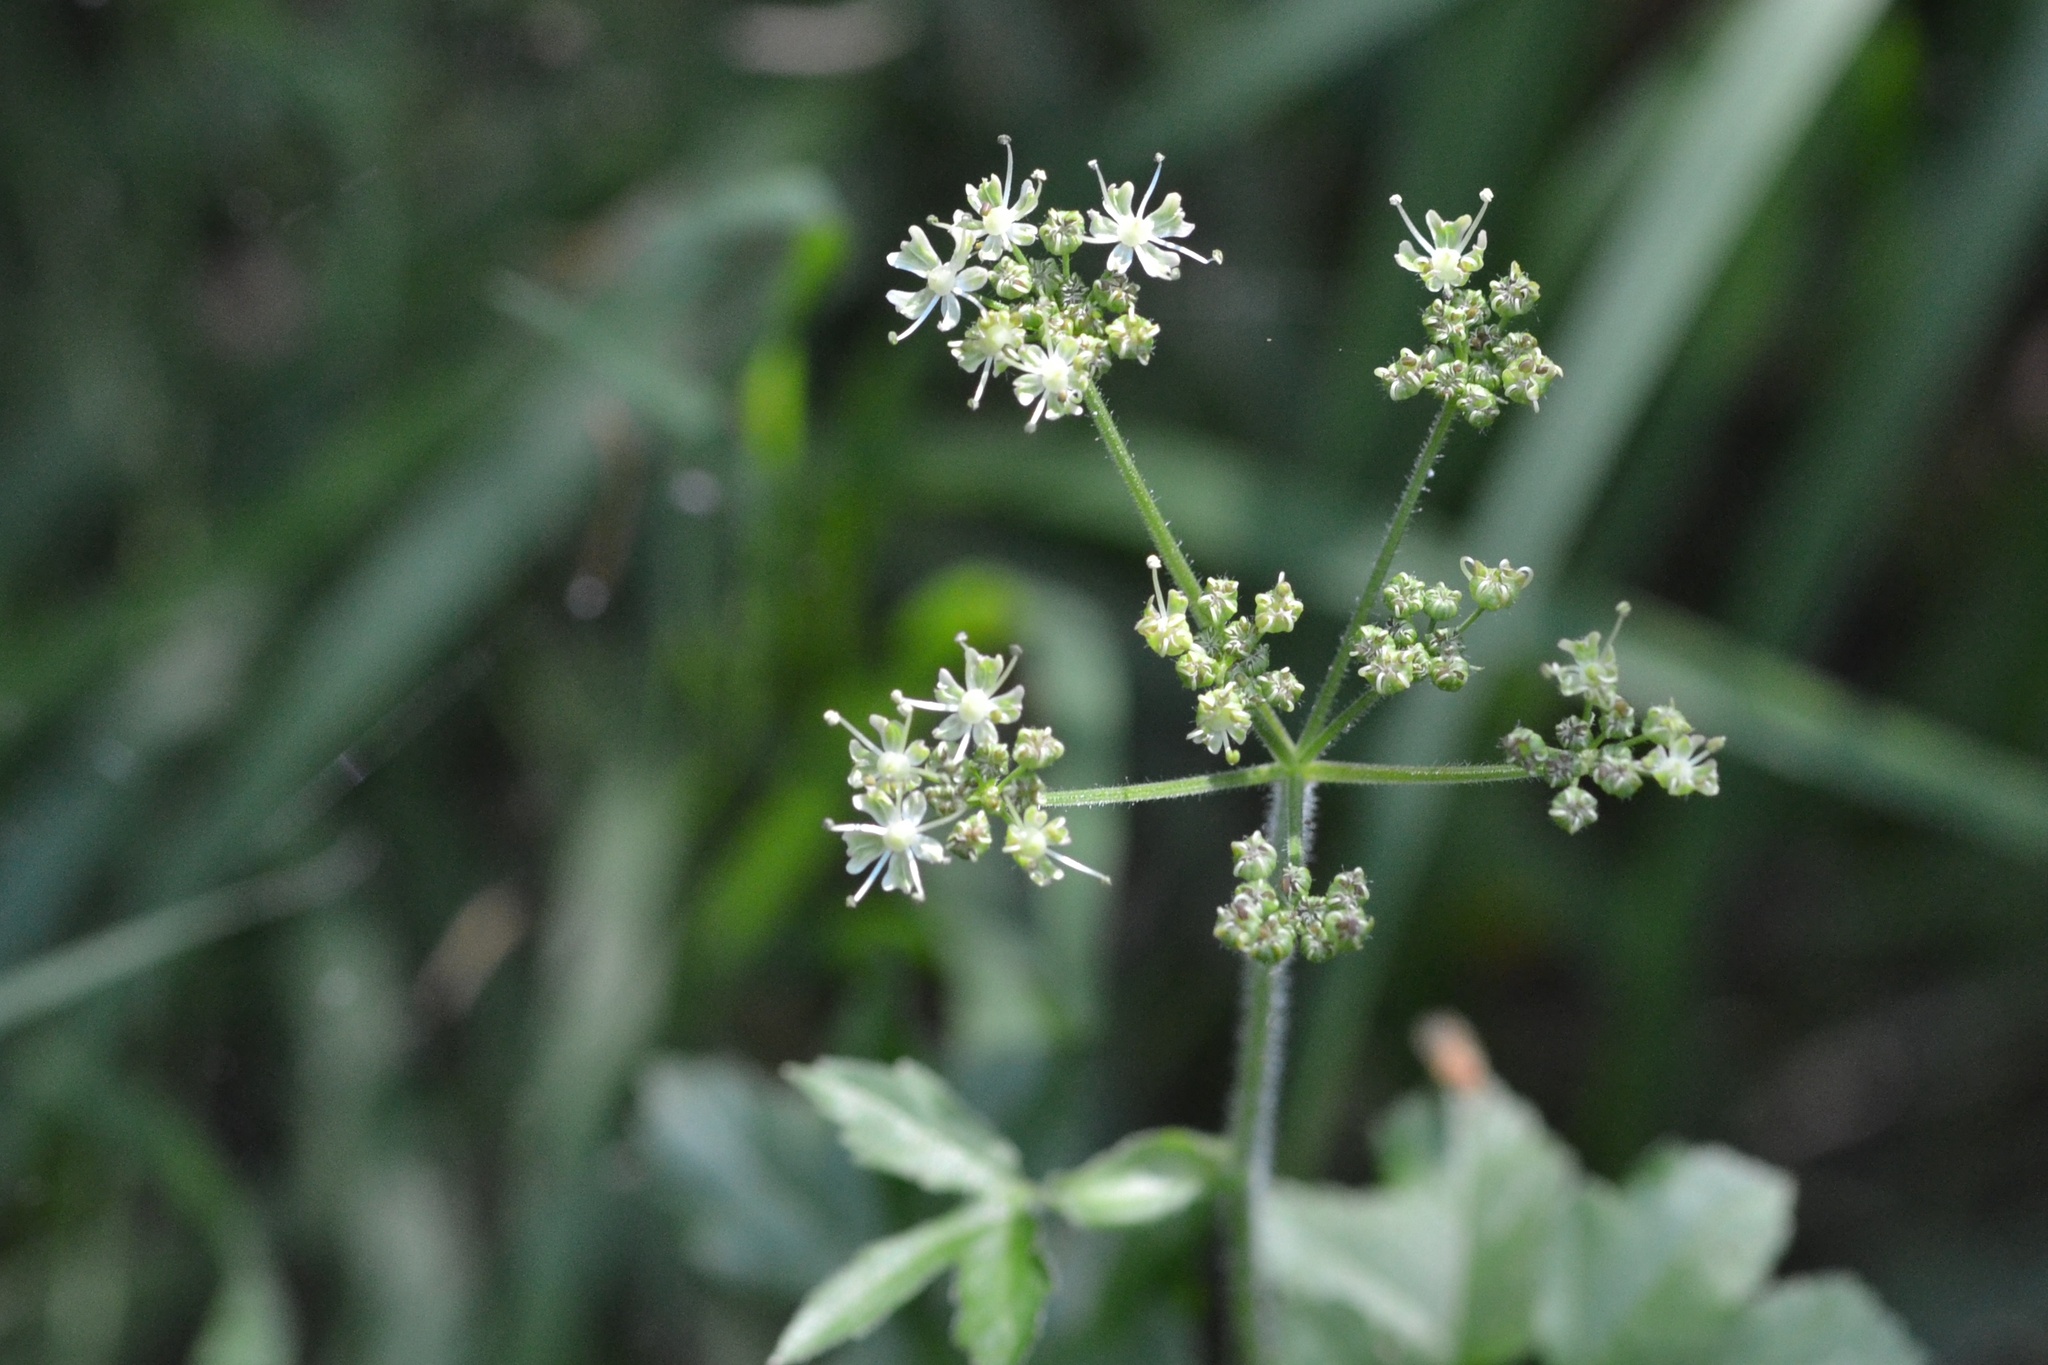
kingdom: Plantae
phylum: Tracheophyta
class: Magnoliopsida
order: Apiales
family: Apiaceae
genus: Heracleum
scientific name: Heracleum sphondylium
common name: Hogweed
